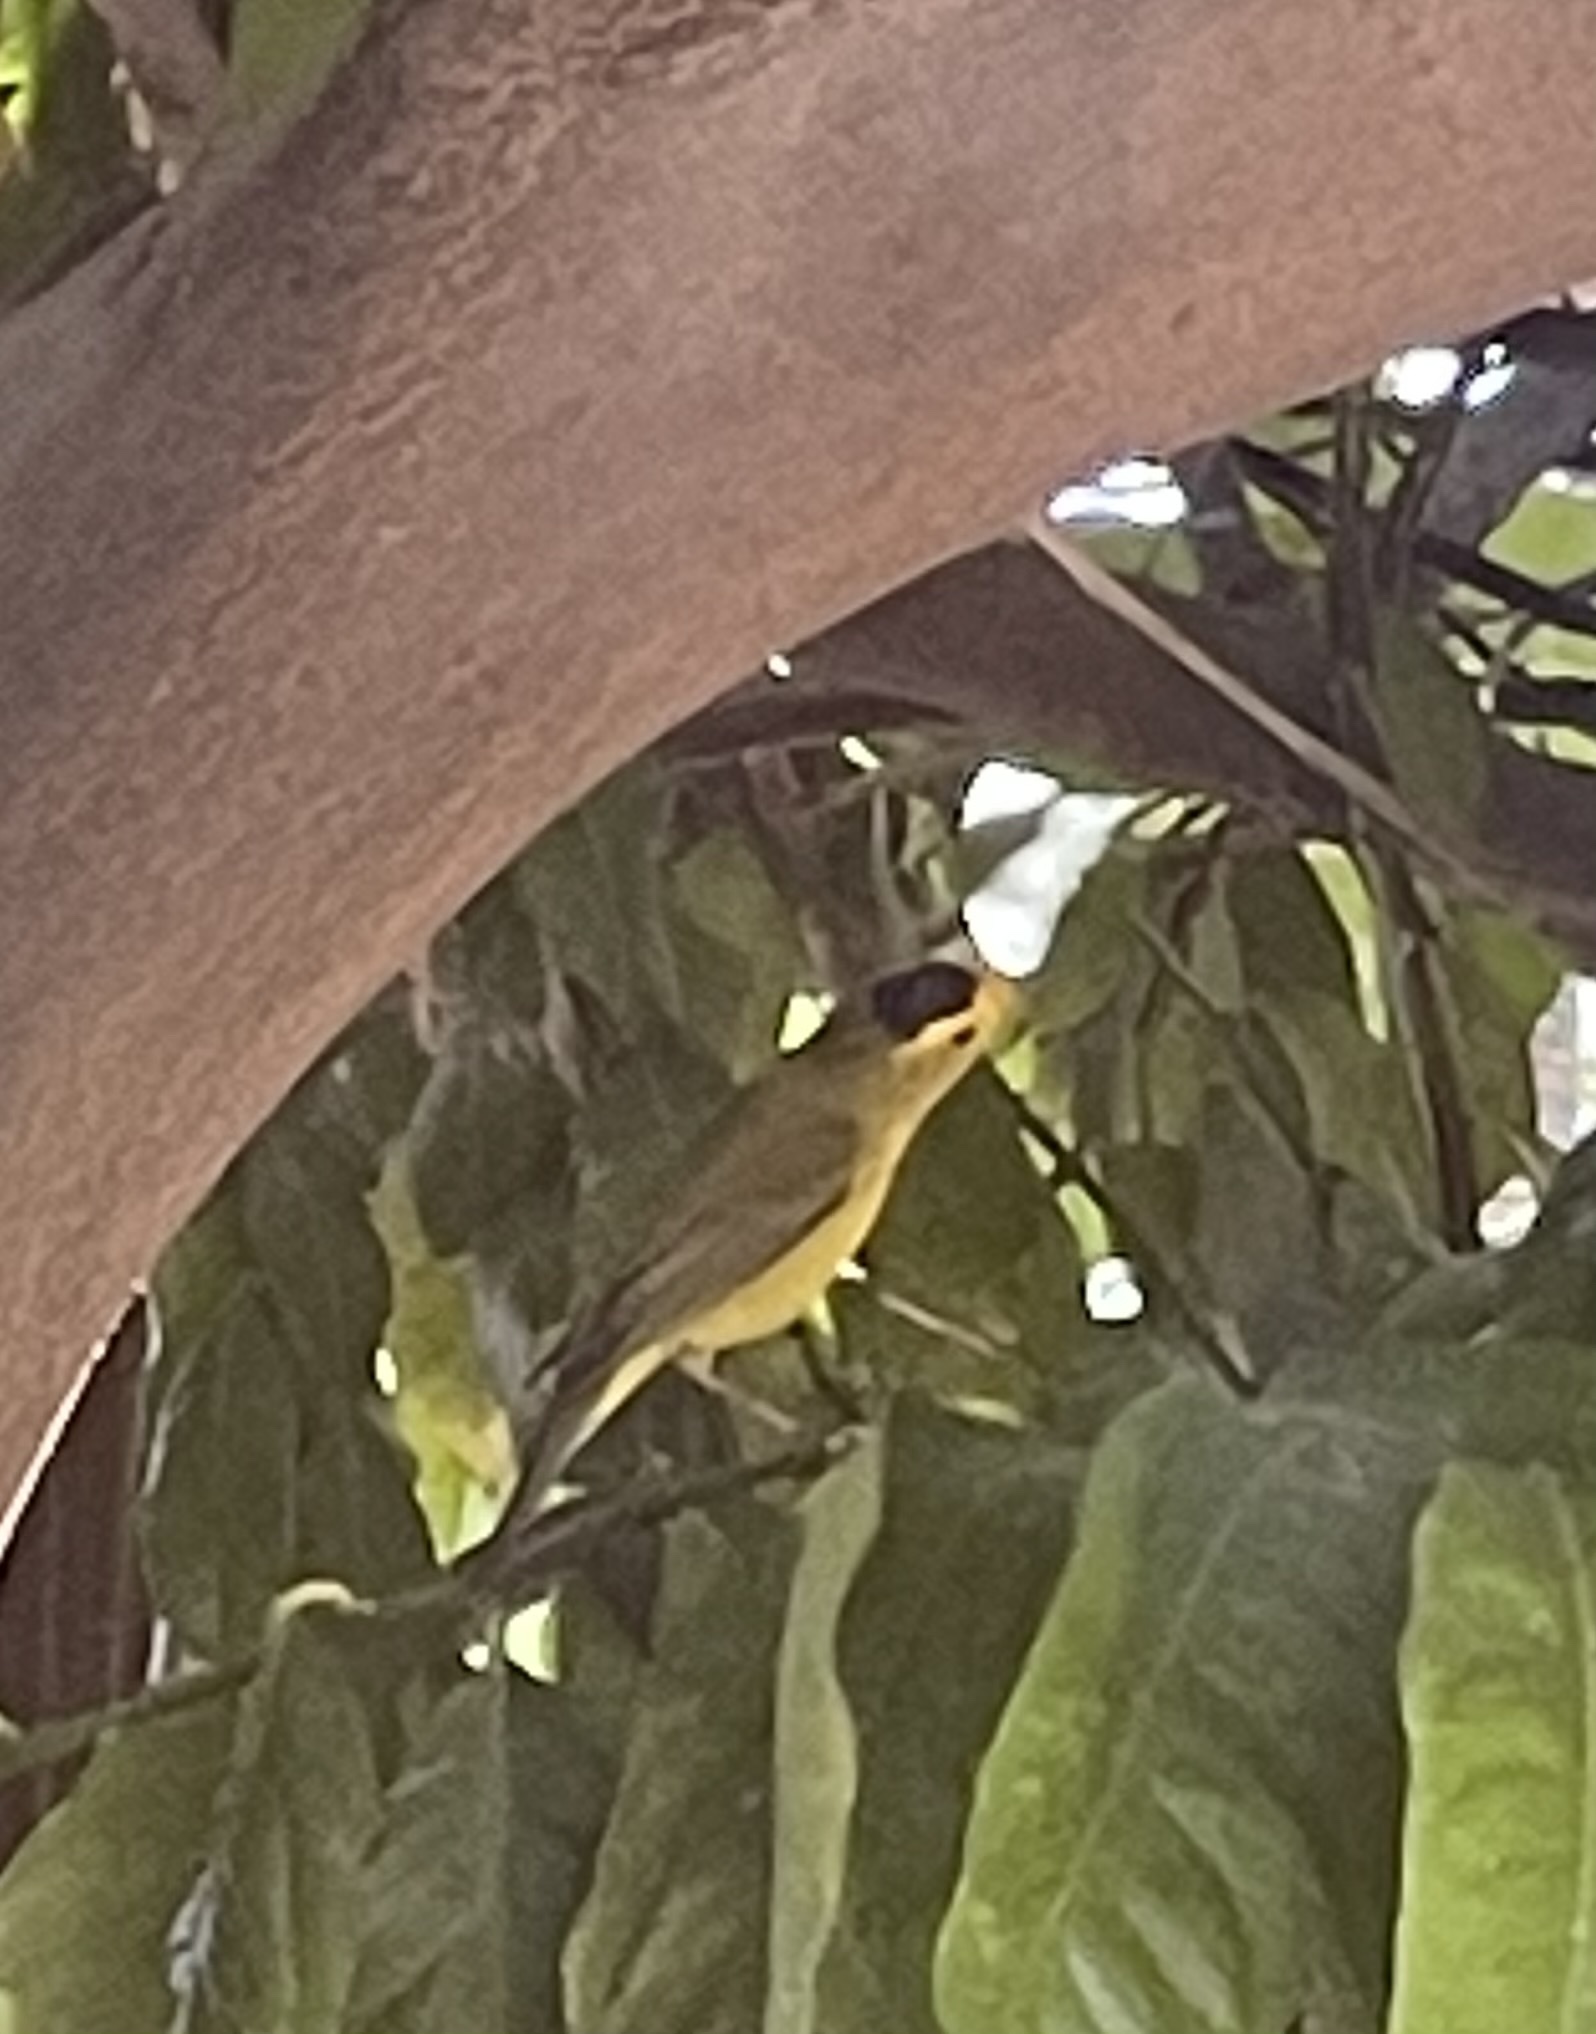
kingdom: Animalia
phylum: Chordata
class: Aves
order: Passeriformes
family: Parulidae
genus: Cardellina
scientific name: Cardellina pusilla
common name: Wilson's warbler
